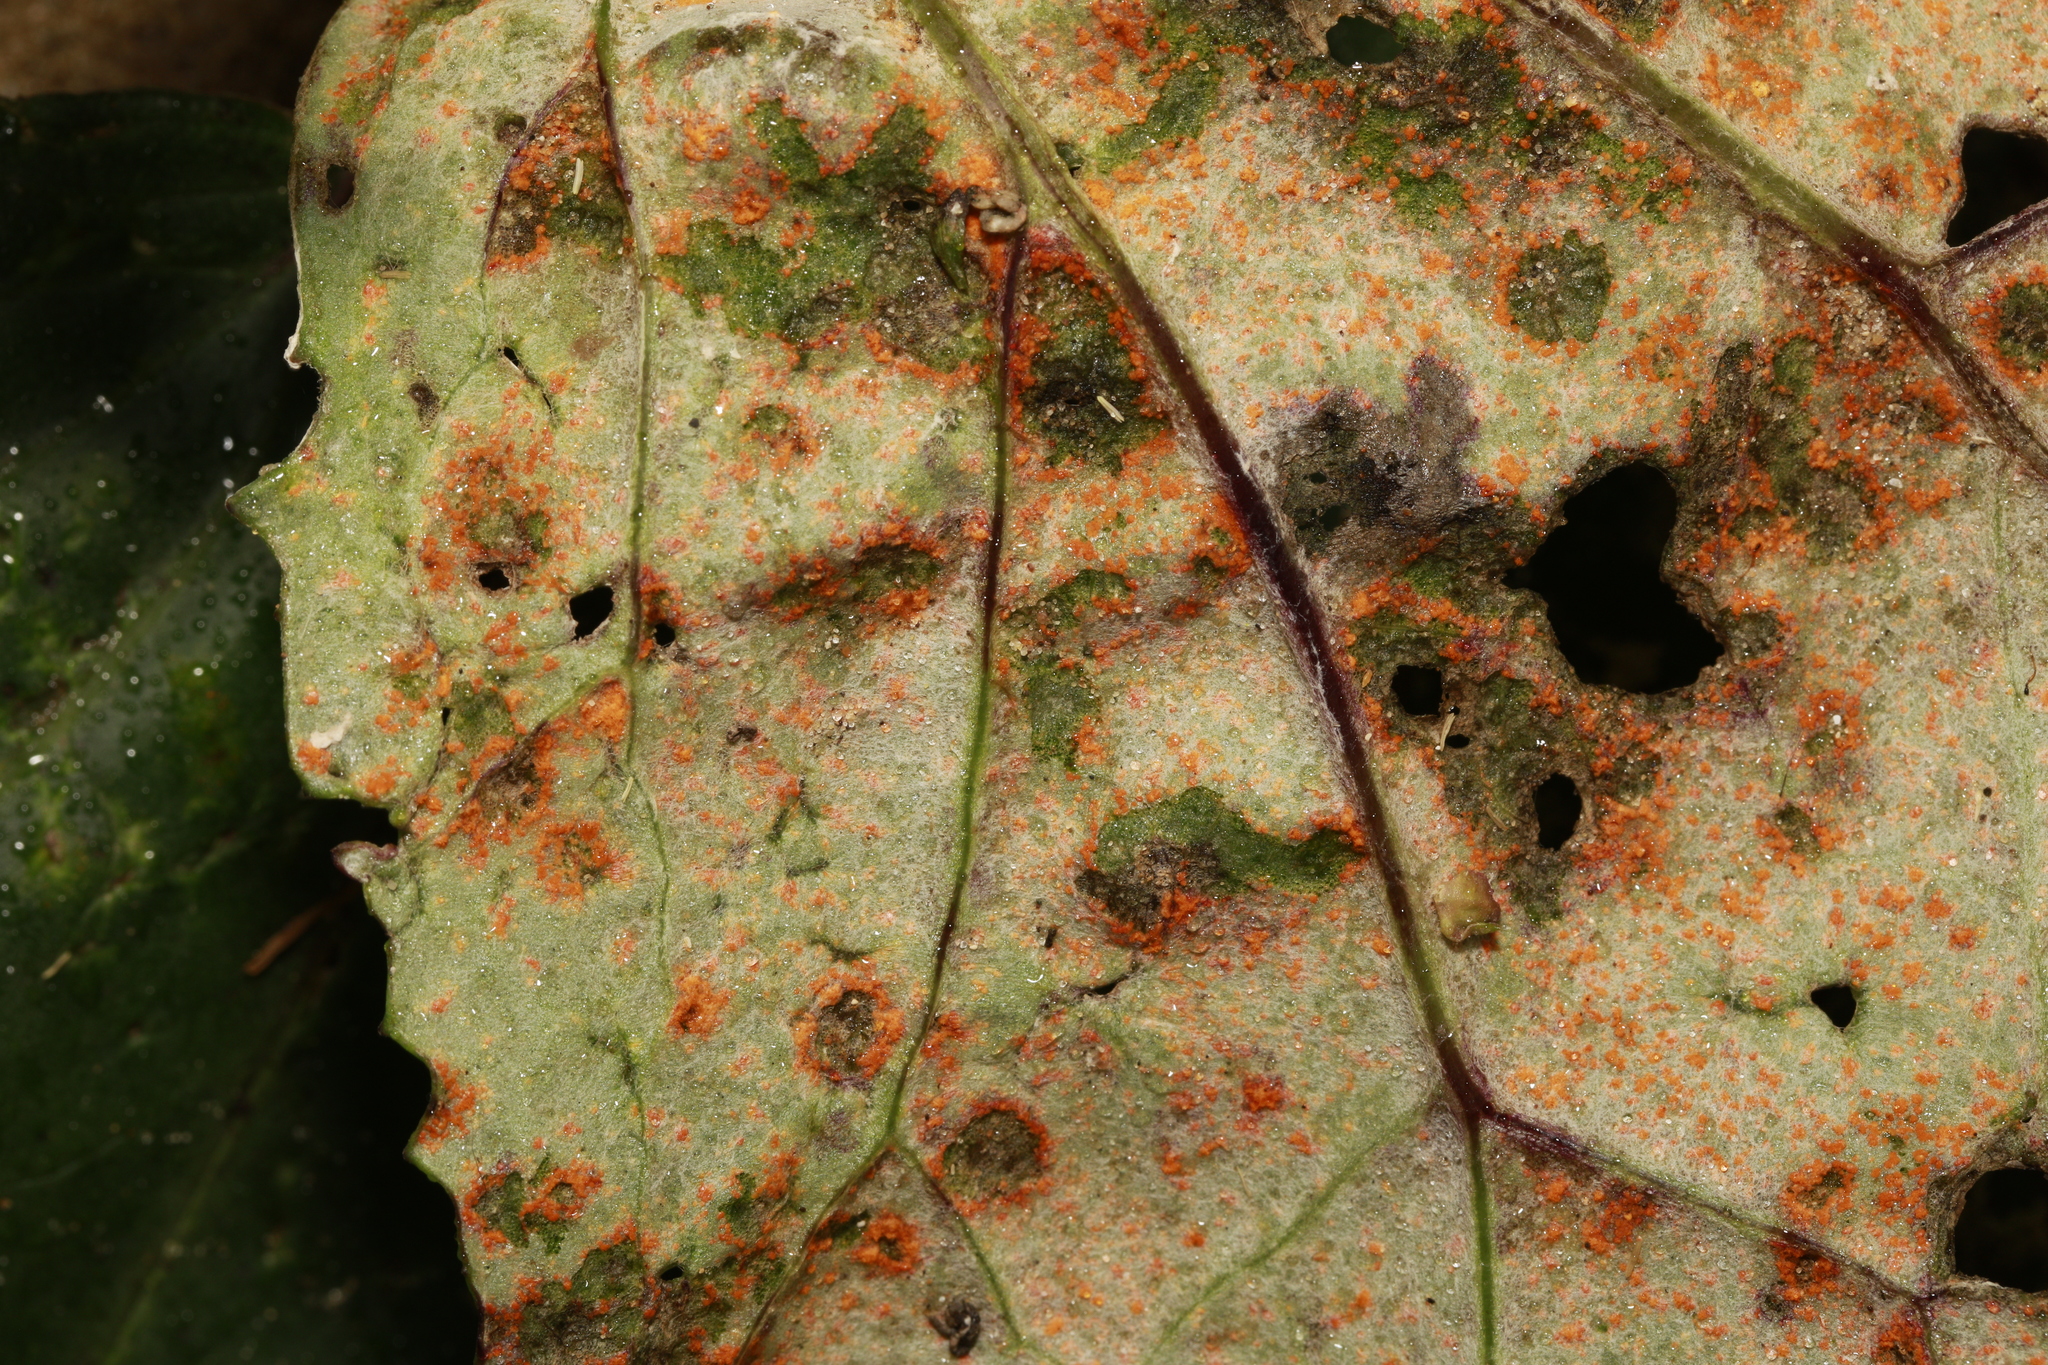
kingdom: Fungi
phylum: Basidiomycota
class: Pucciniomycetes
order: Pucciniales
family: Coleosporiaceae
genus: Coleosporium
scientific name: Coleosporium tussilaginis
